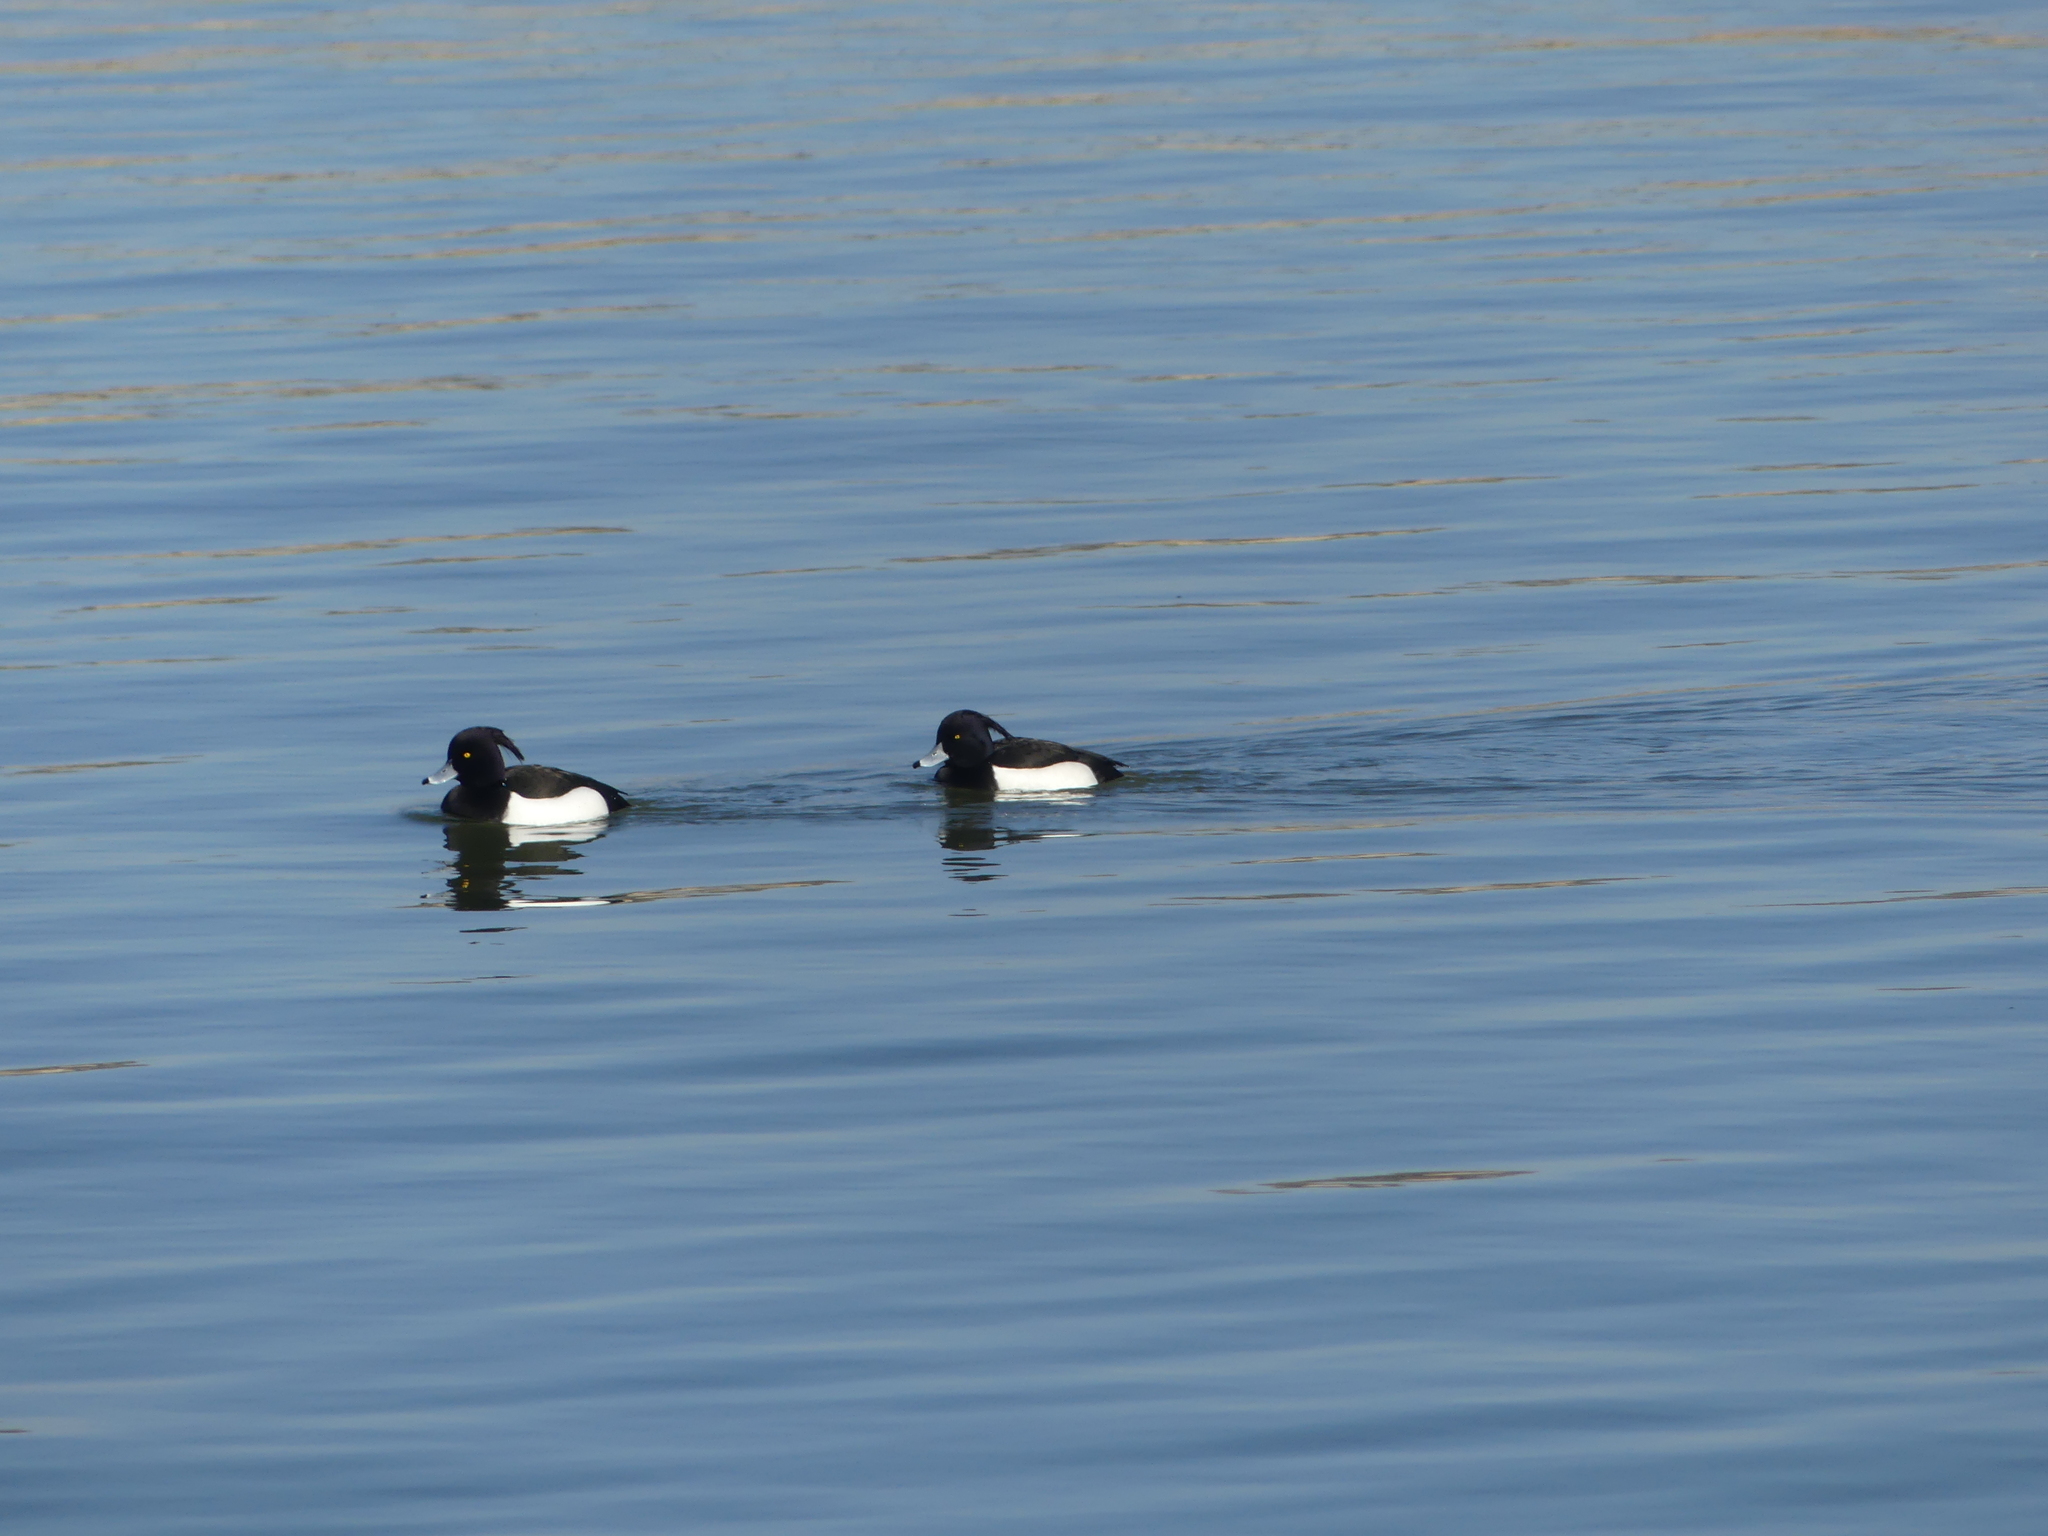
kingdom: Animalia
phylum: Chordata
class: Aves
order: Anseriformes
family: Anatidae
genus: Aythya
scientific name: Aythya fuligula
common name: Tufted duck
